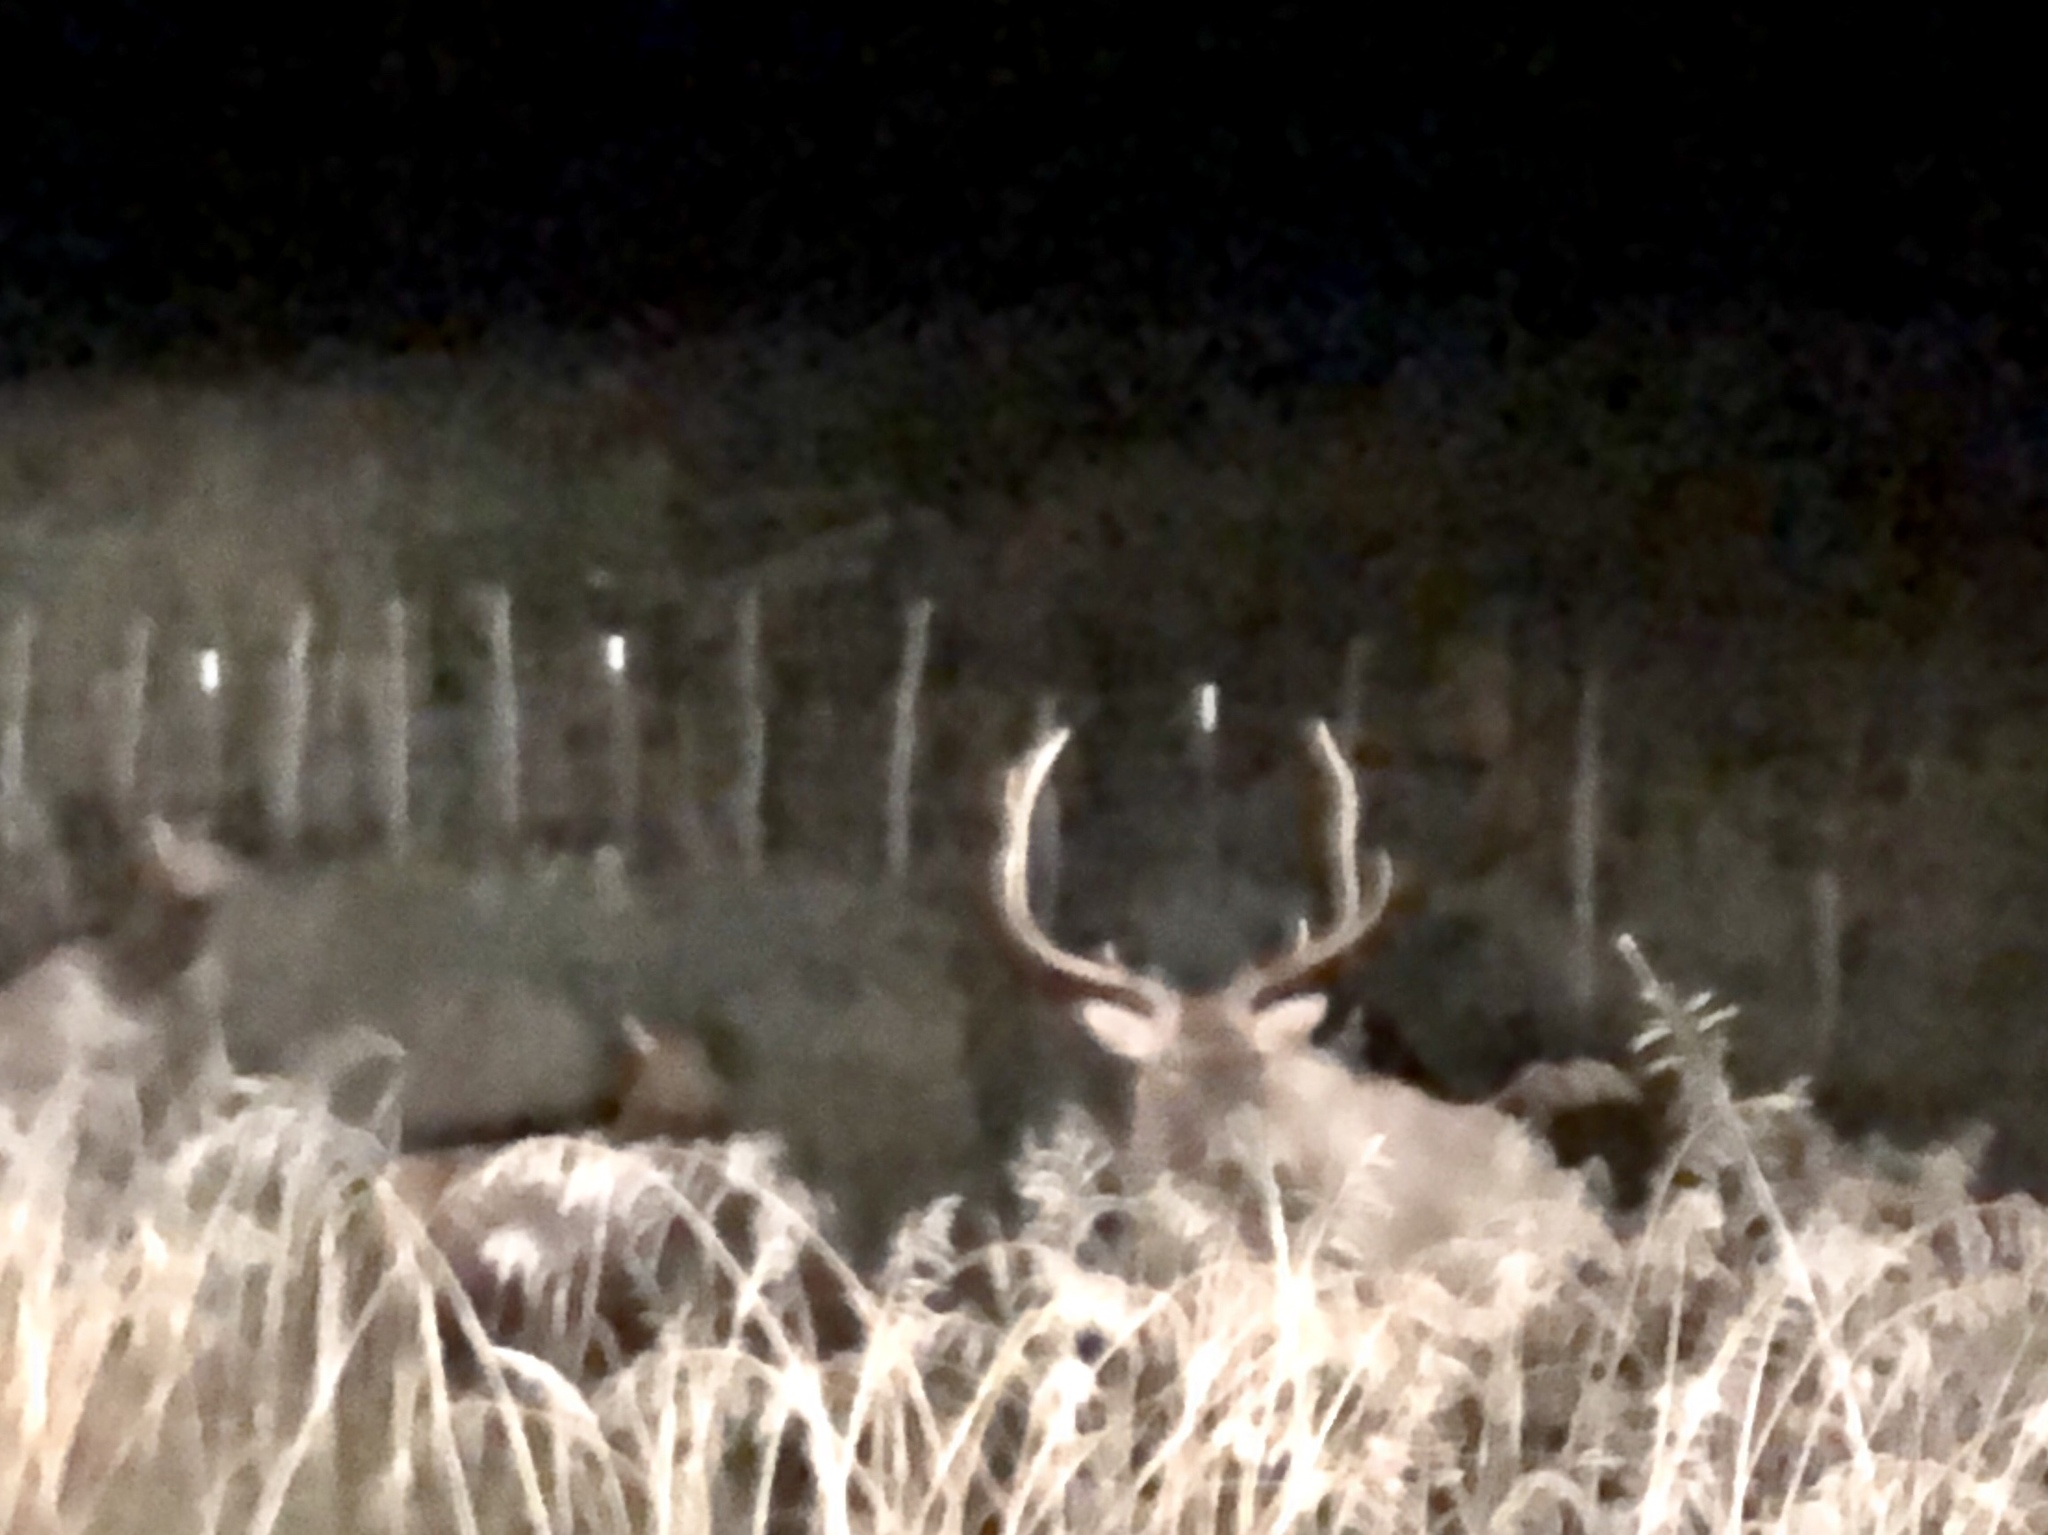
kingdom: Animalia
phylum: Chordata
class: Mammalia
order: Artiodactyla
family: Cervidae
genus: Cervus
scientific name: Cervus elaphus
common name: Red deer
